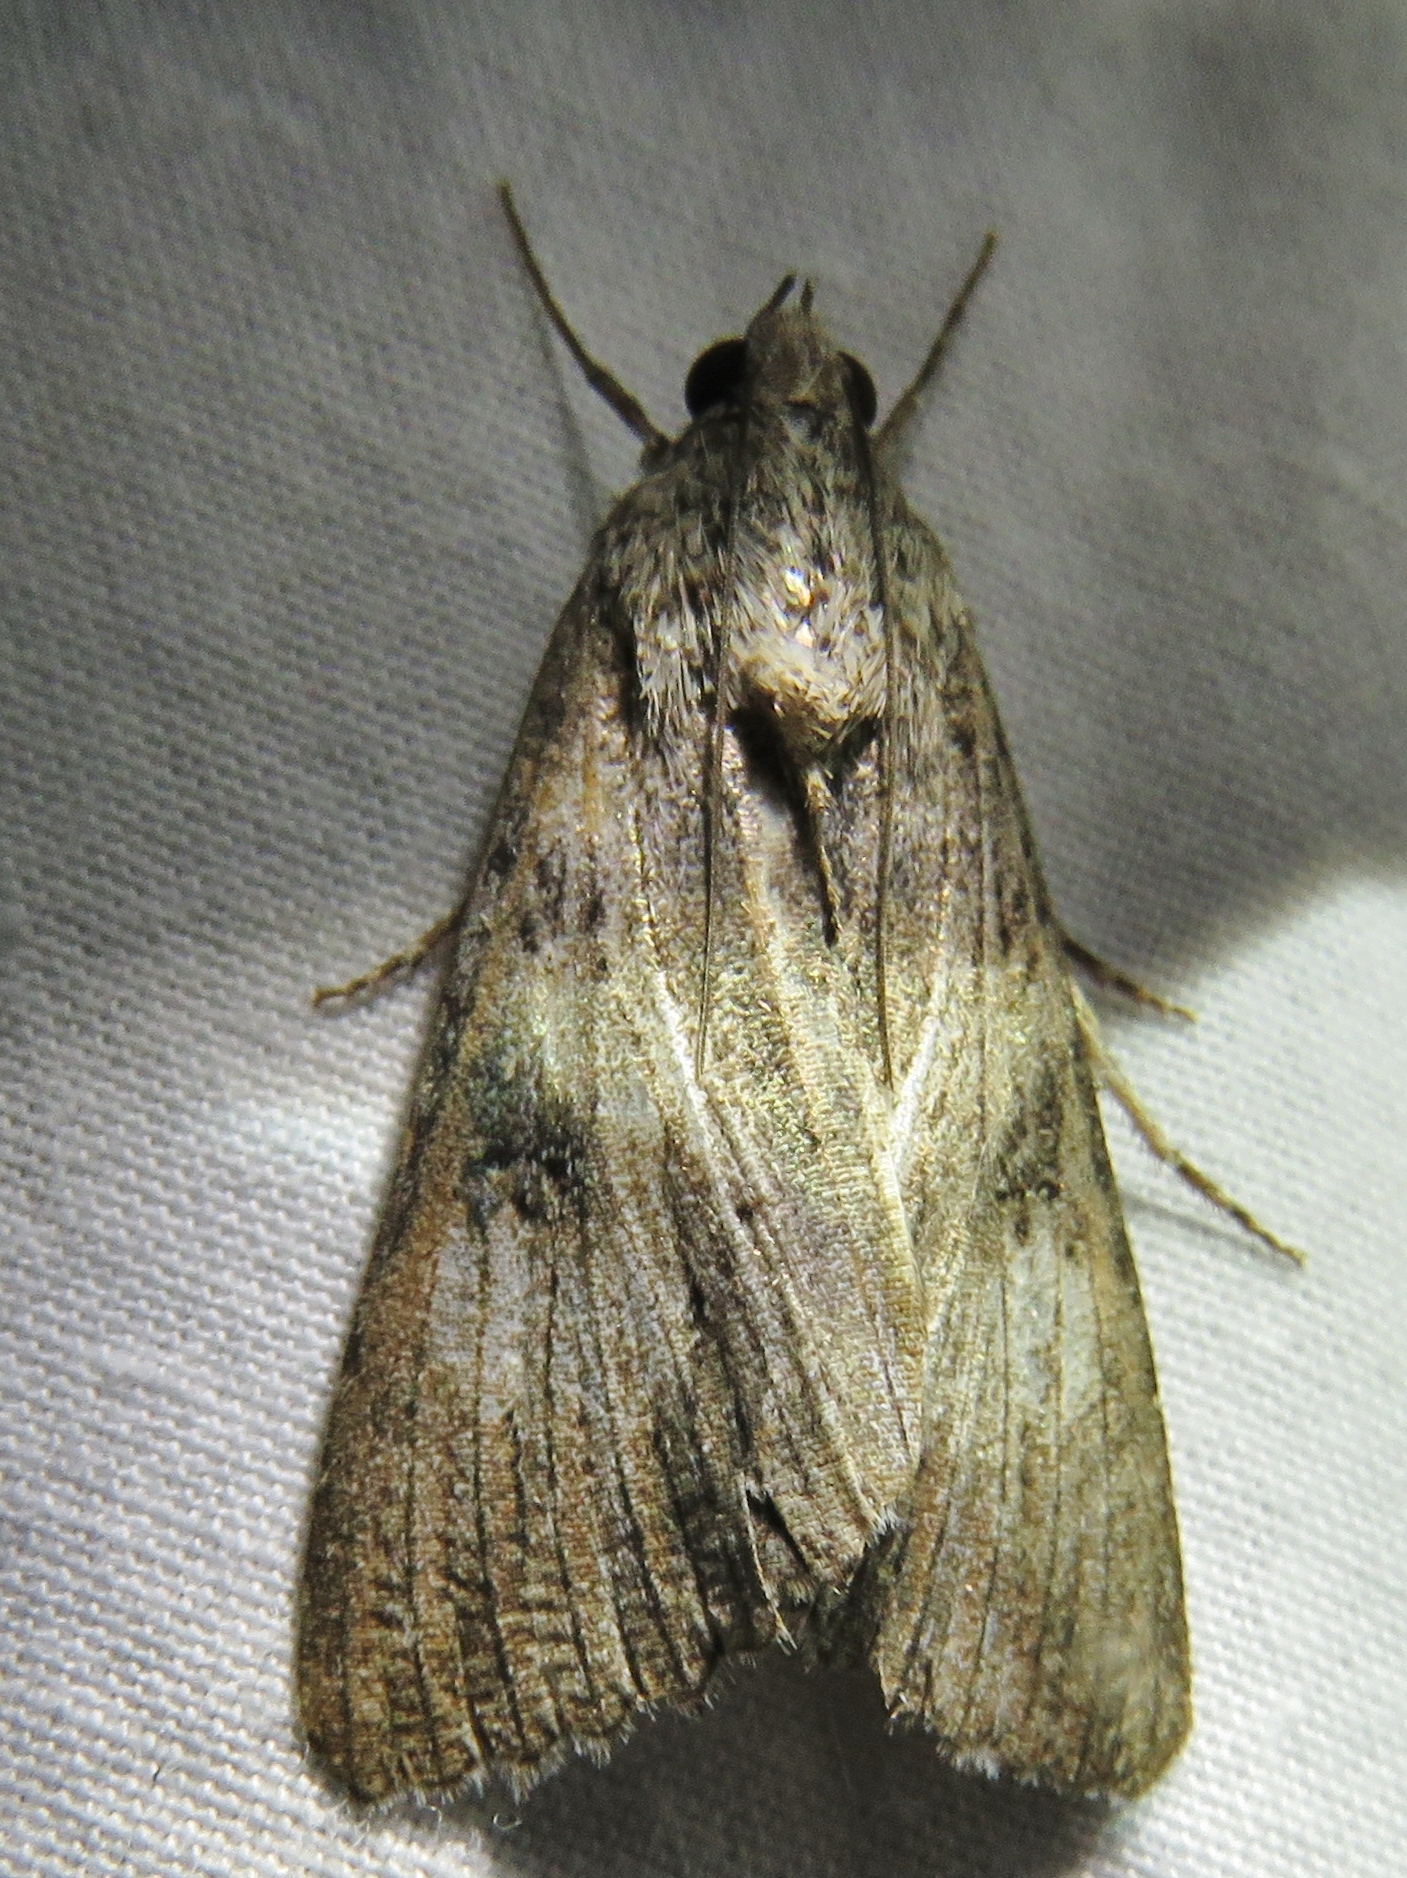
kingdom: Animalia
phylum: Arthropoda
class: Insecta
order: Lepidoptera
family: Erebidae
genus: Melipotis
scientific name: Melipotis jucunda
